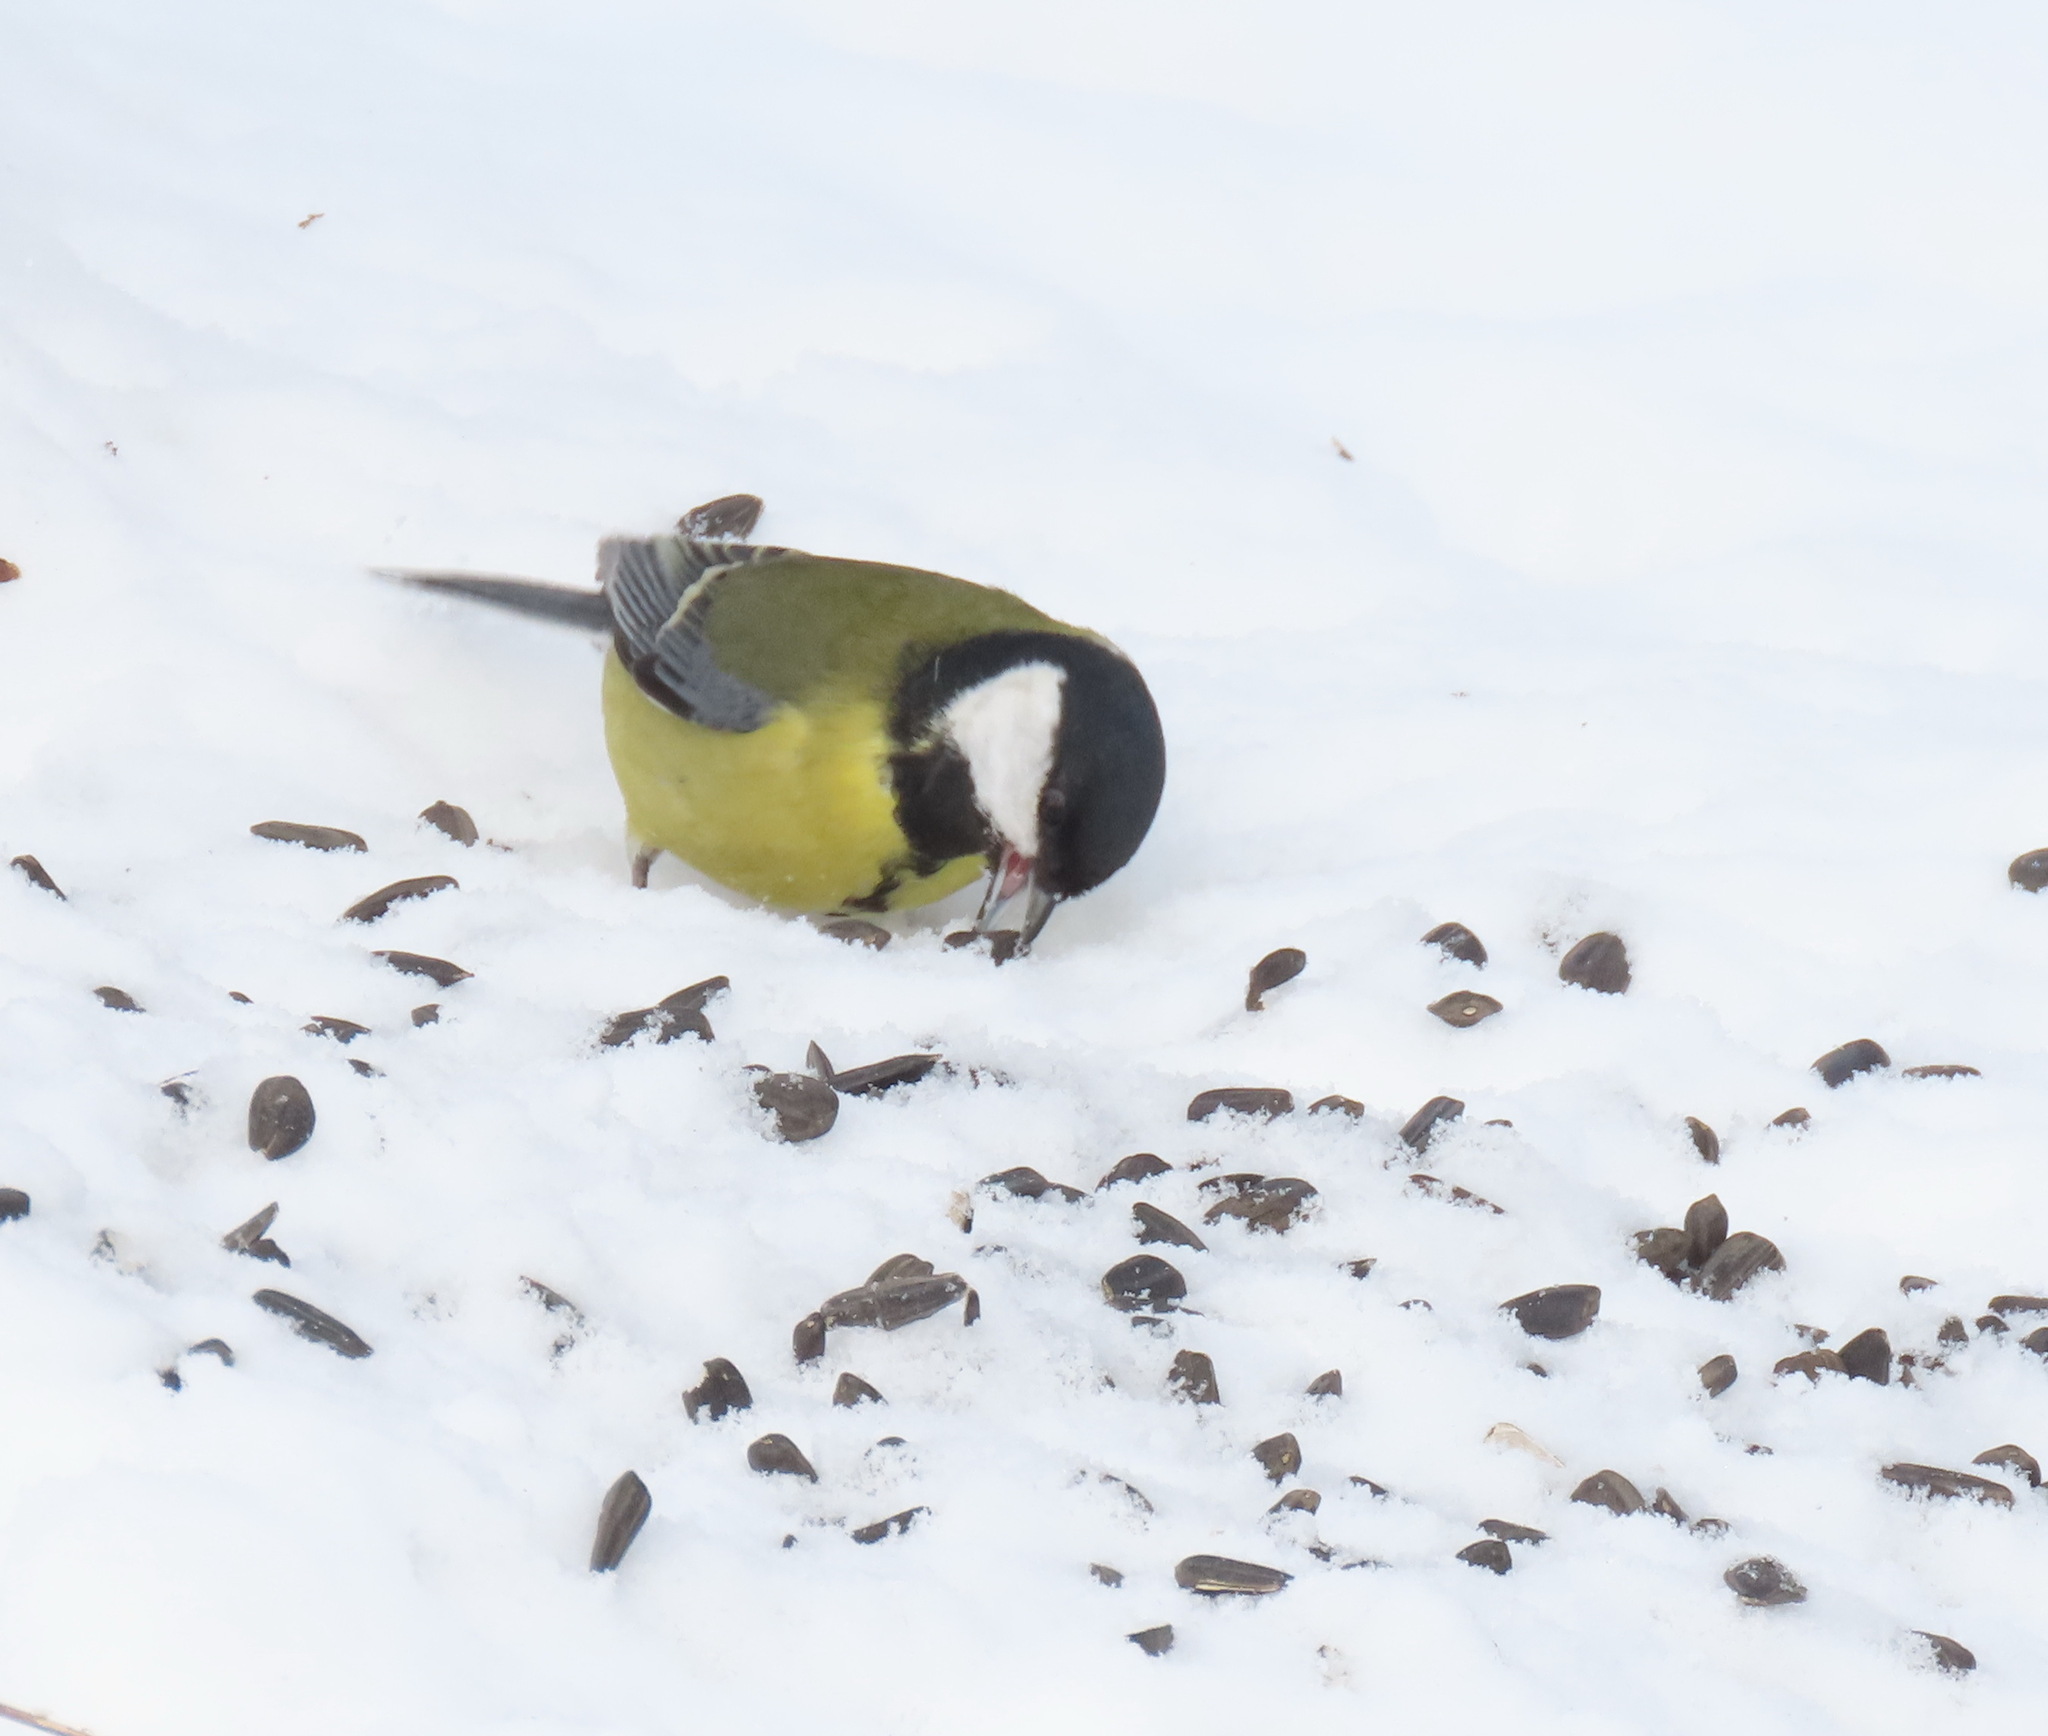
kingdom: Animalia
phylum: Chordata
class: Aves
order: Passeriformes
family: Paridae
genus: Parus
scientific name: Parus major
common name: Great tit
